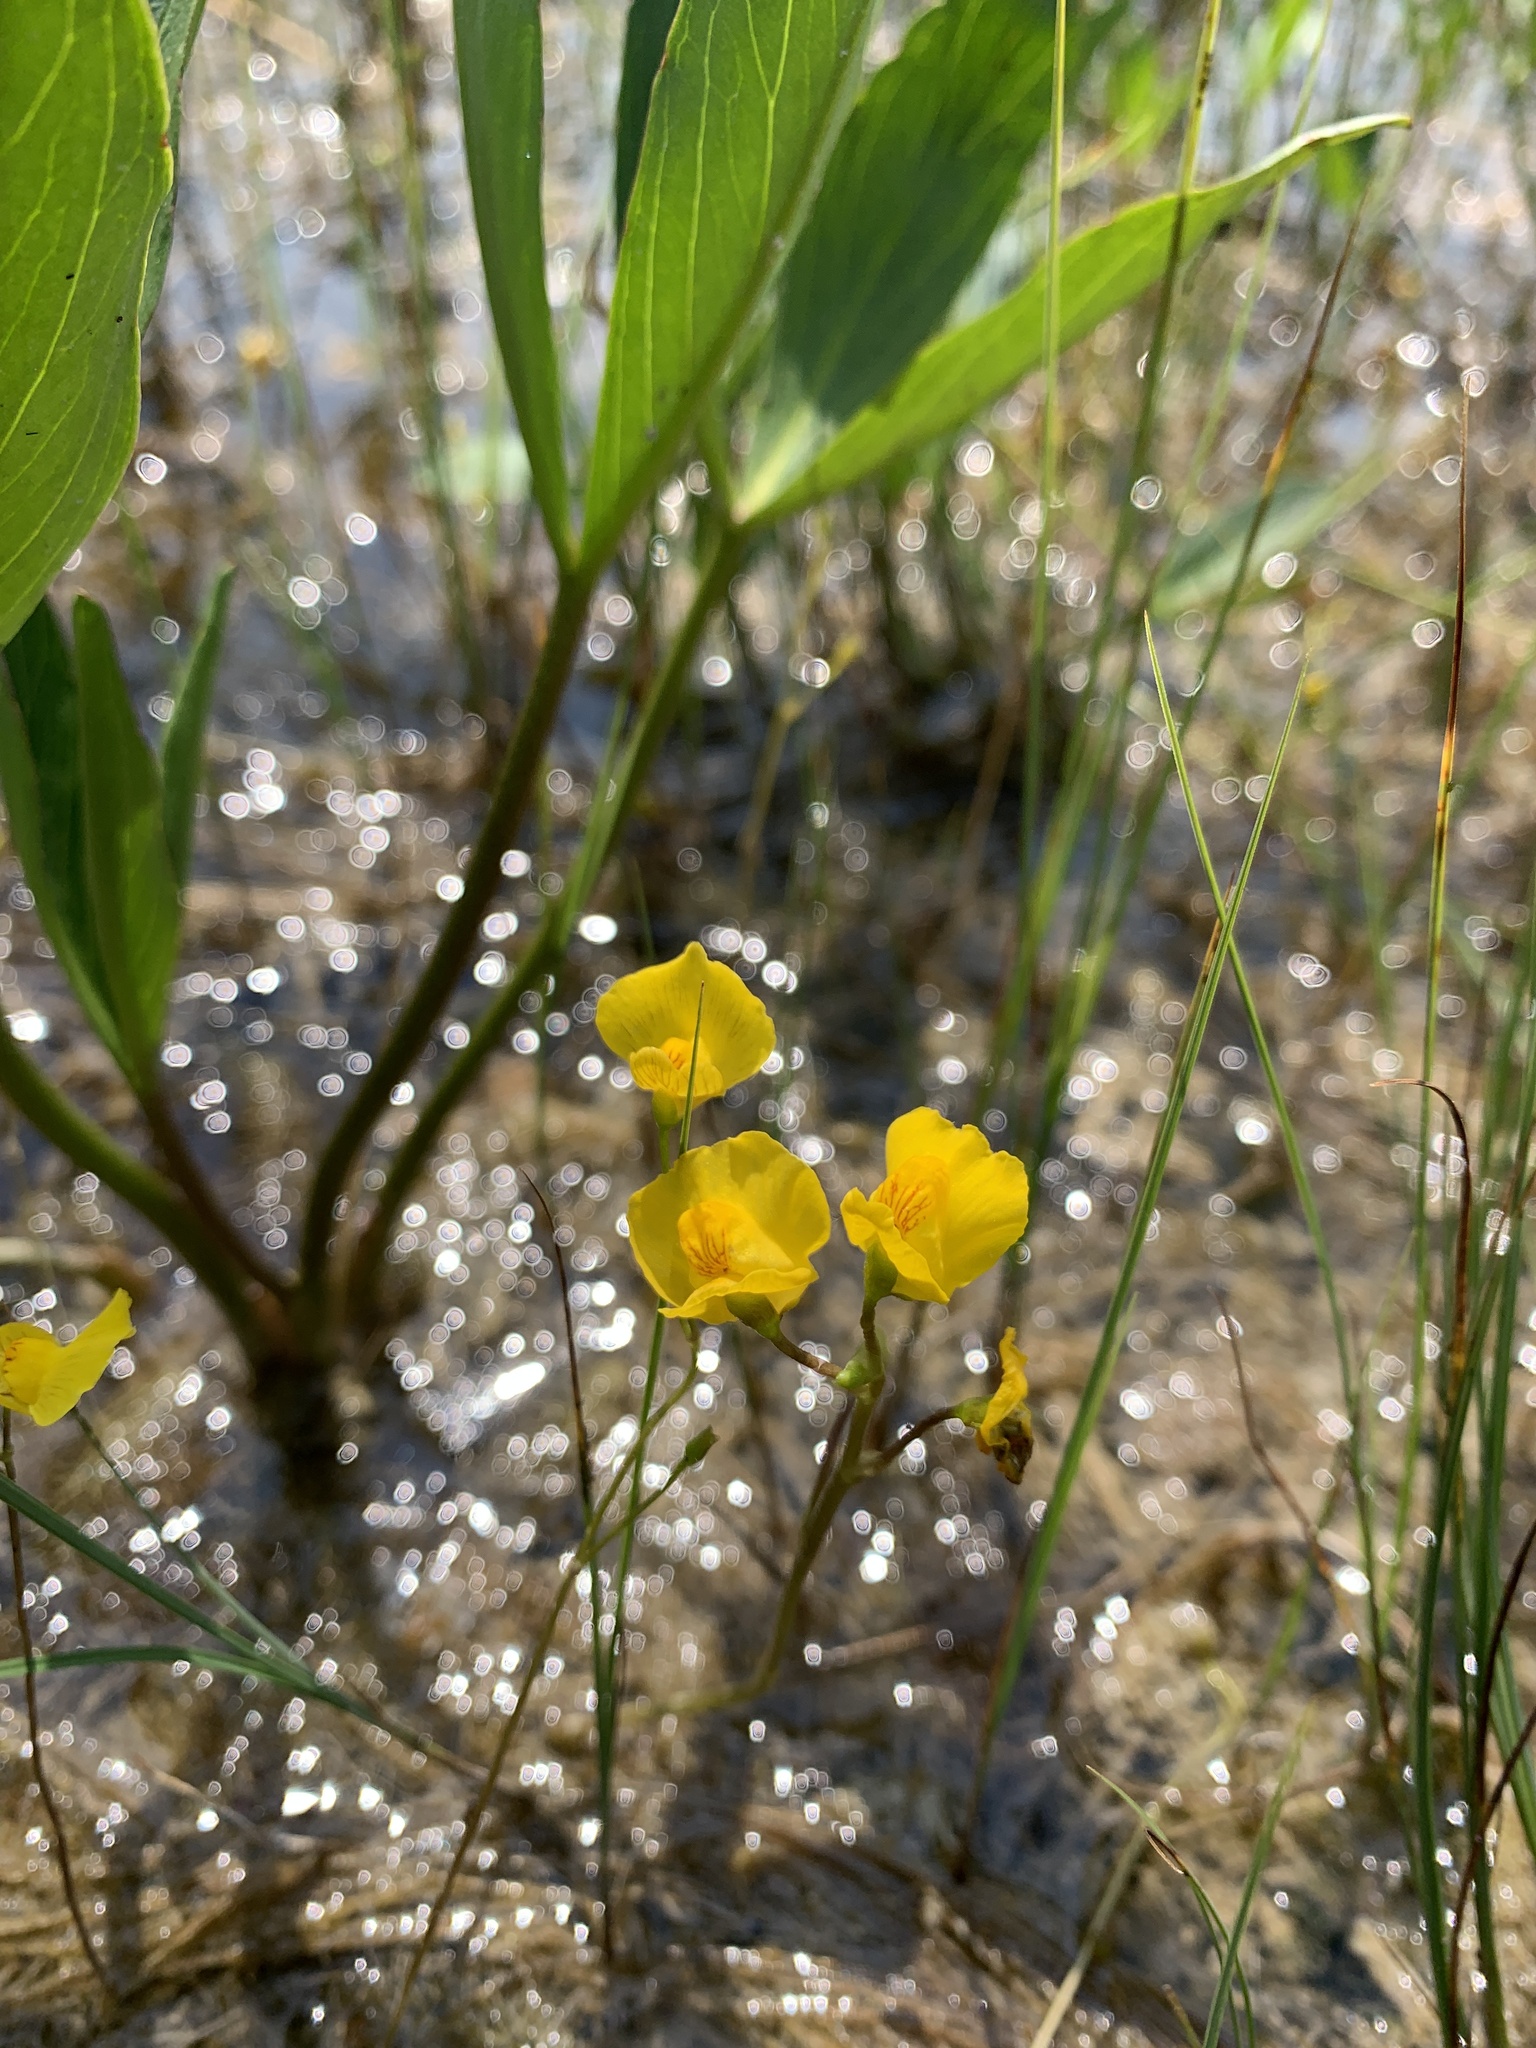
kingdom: Plantae
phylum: Tracheophyta
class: Magnoliopsida
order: Lamiales
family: Lentibulariaceae
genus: Utricularia
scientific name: Utricularia intermedia
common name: Intermediate bladderwort
